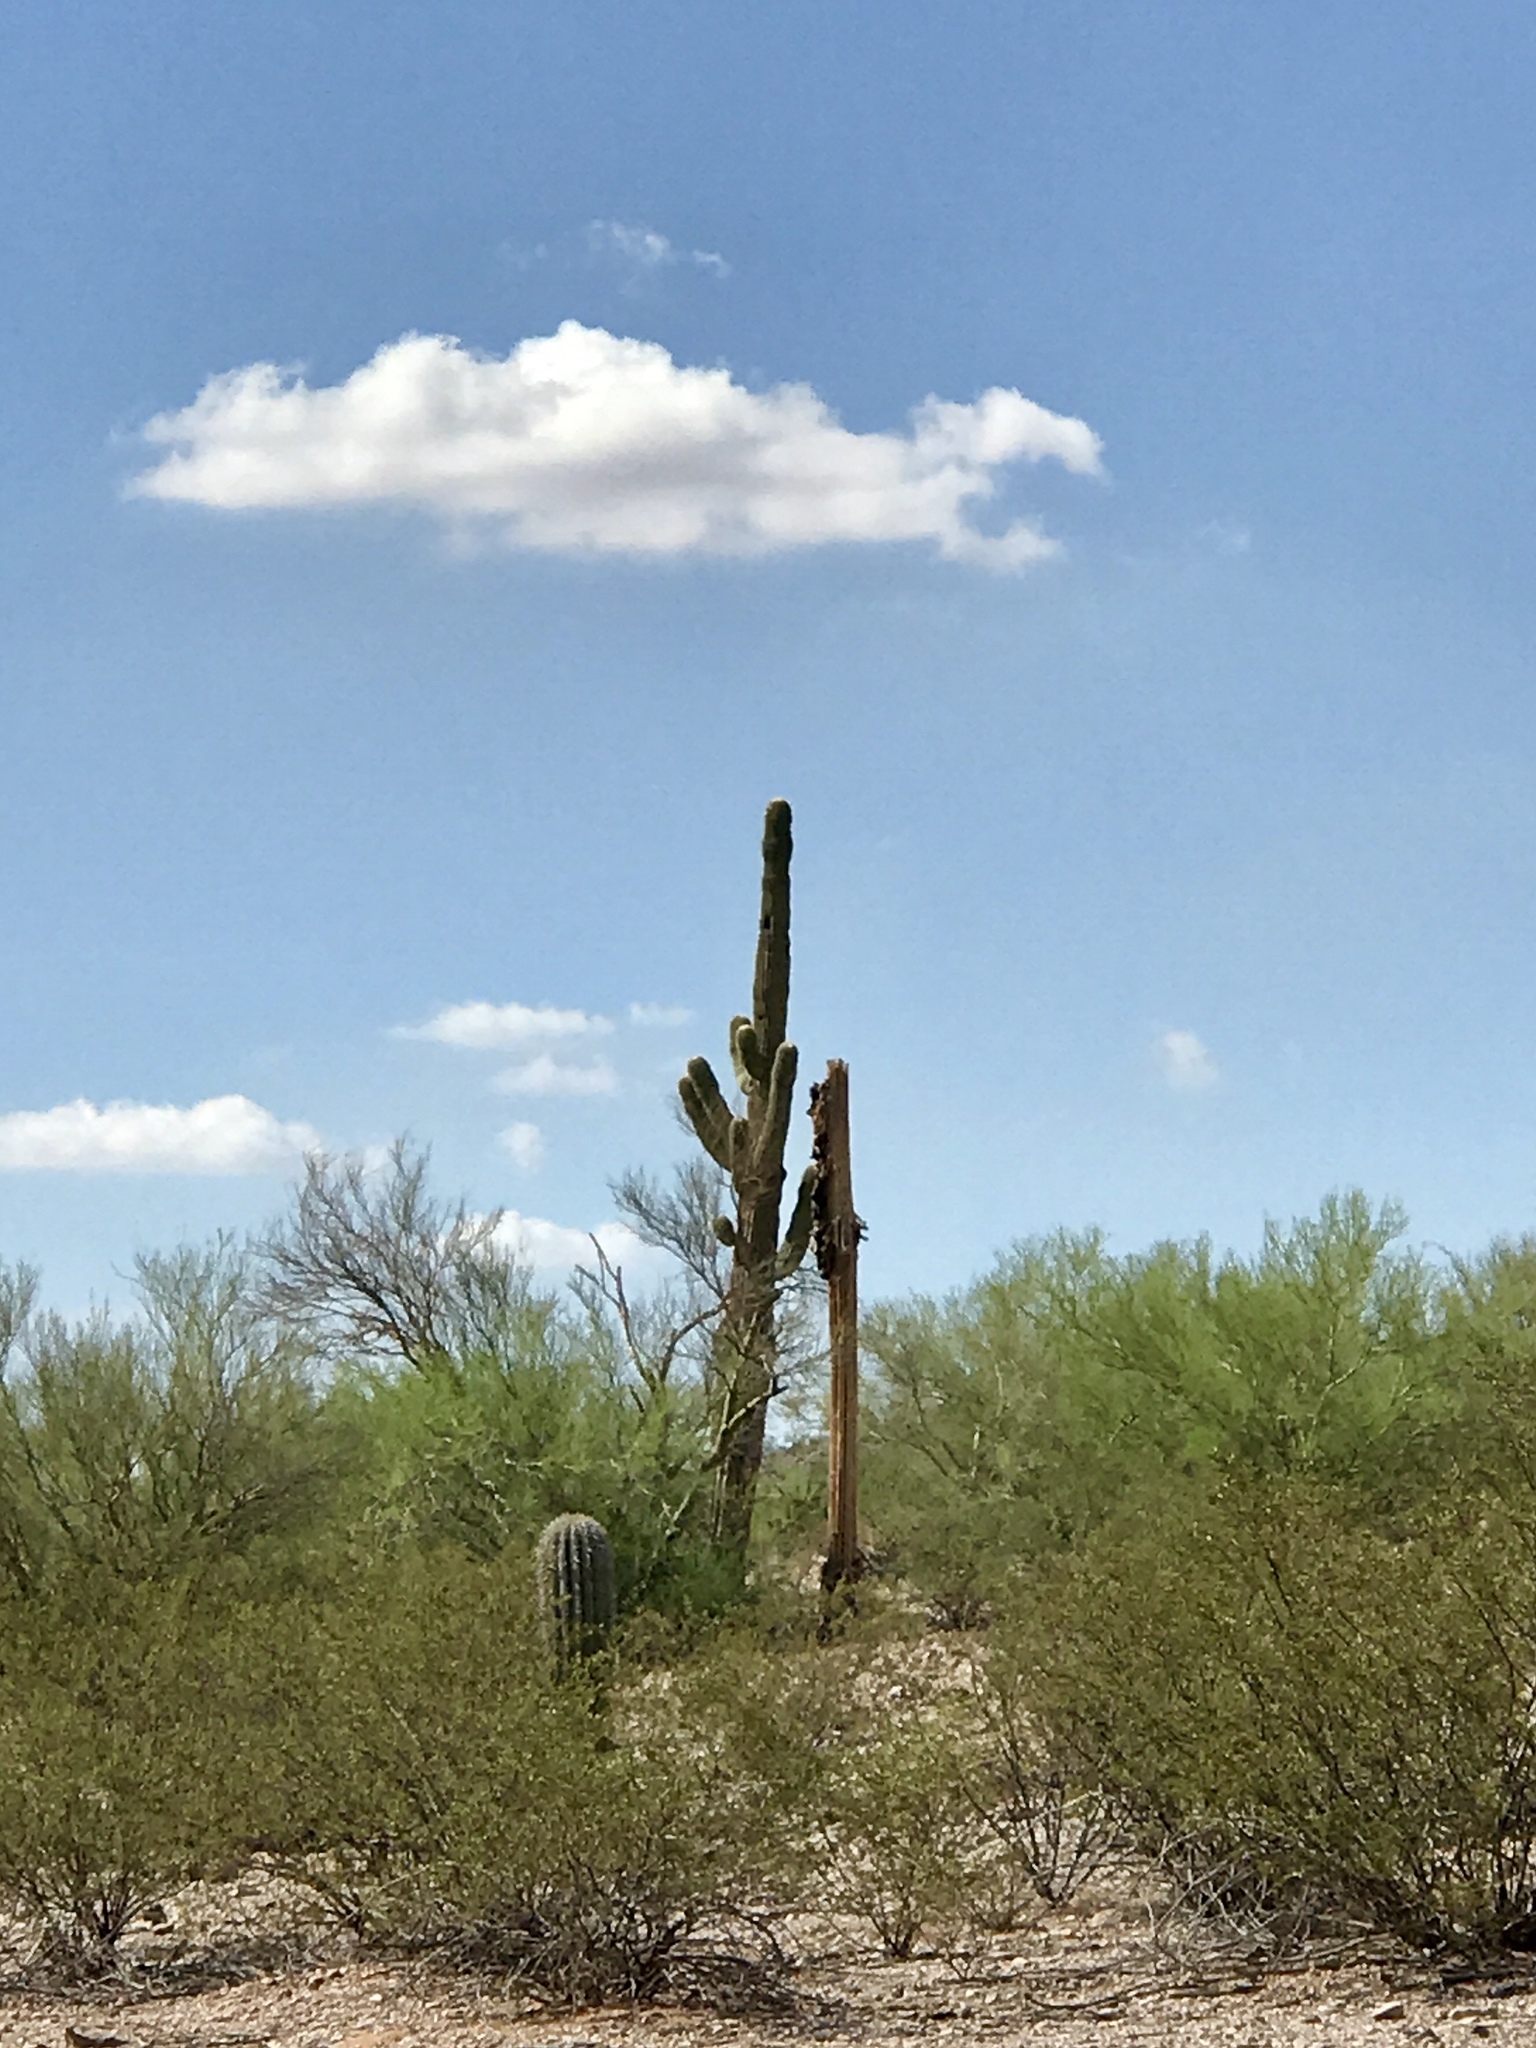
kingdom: Plantae
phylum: Tracheophyta
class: Magnoliopsida
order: Caryophyllales
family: Cactaceae
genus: Carnegiea
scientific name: Carnegiea gigantea
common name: Saguaro
